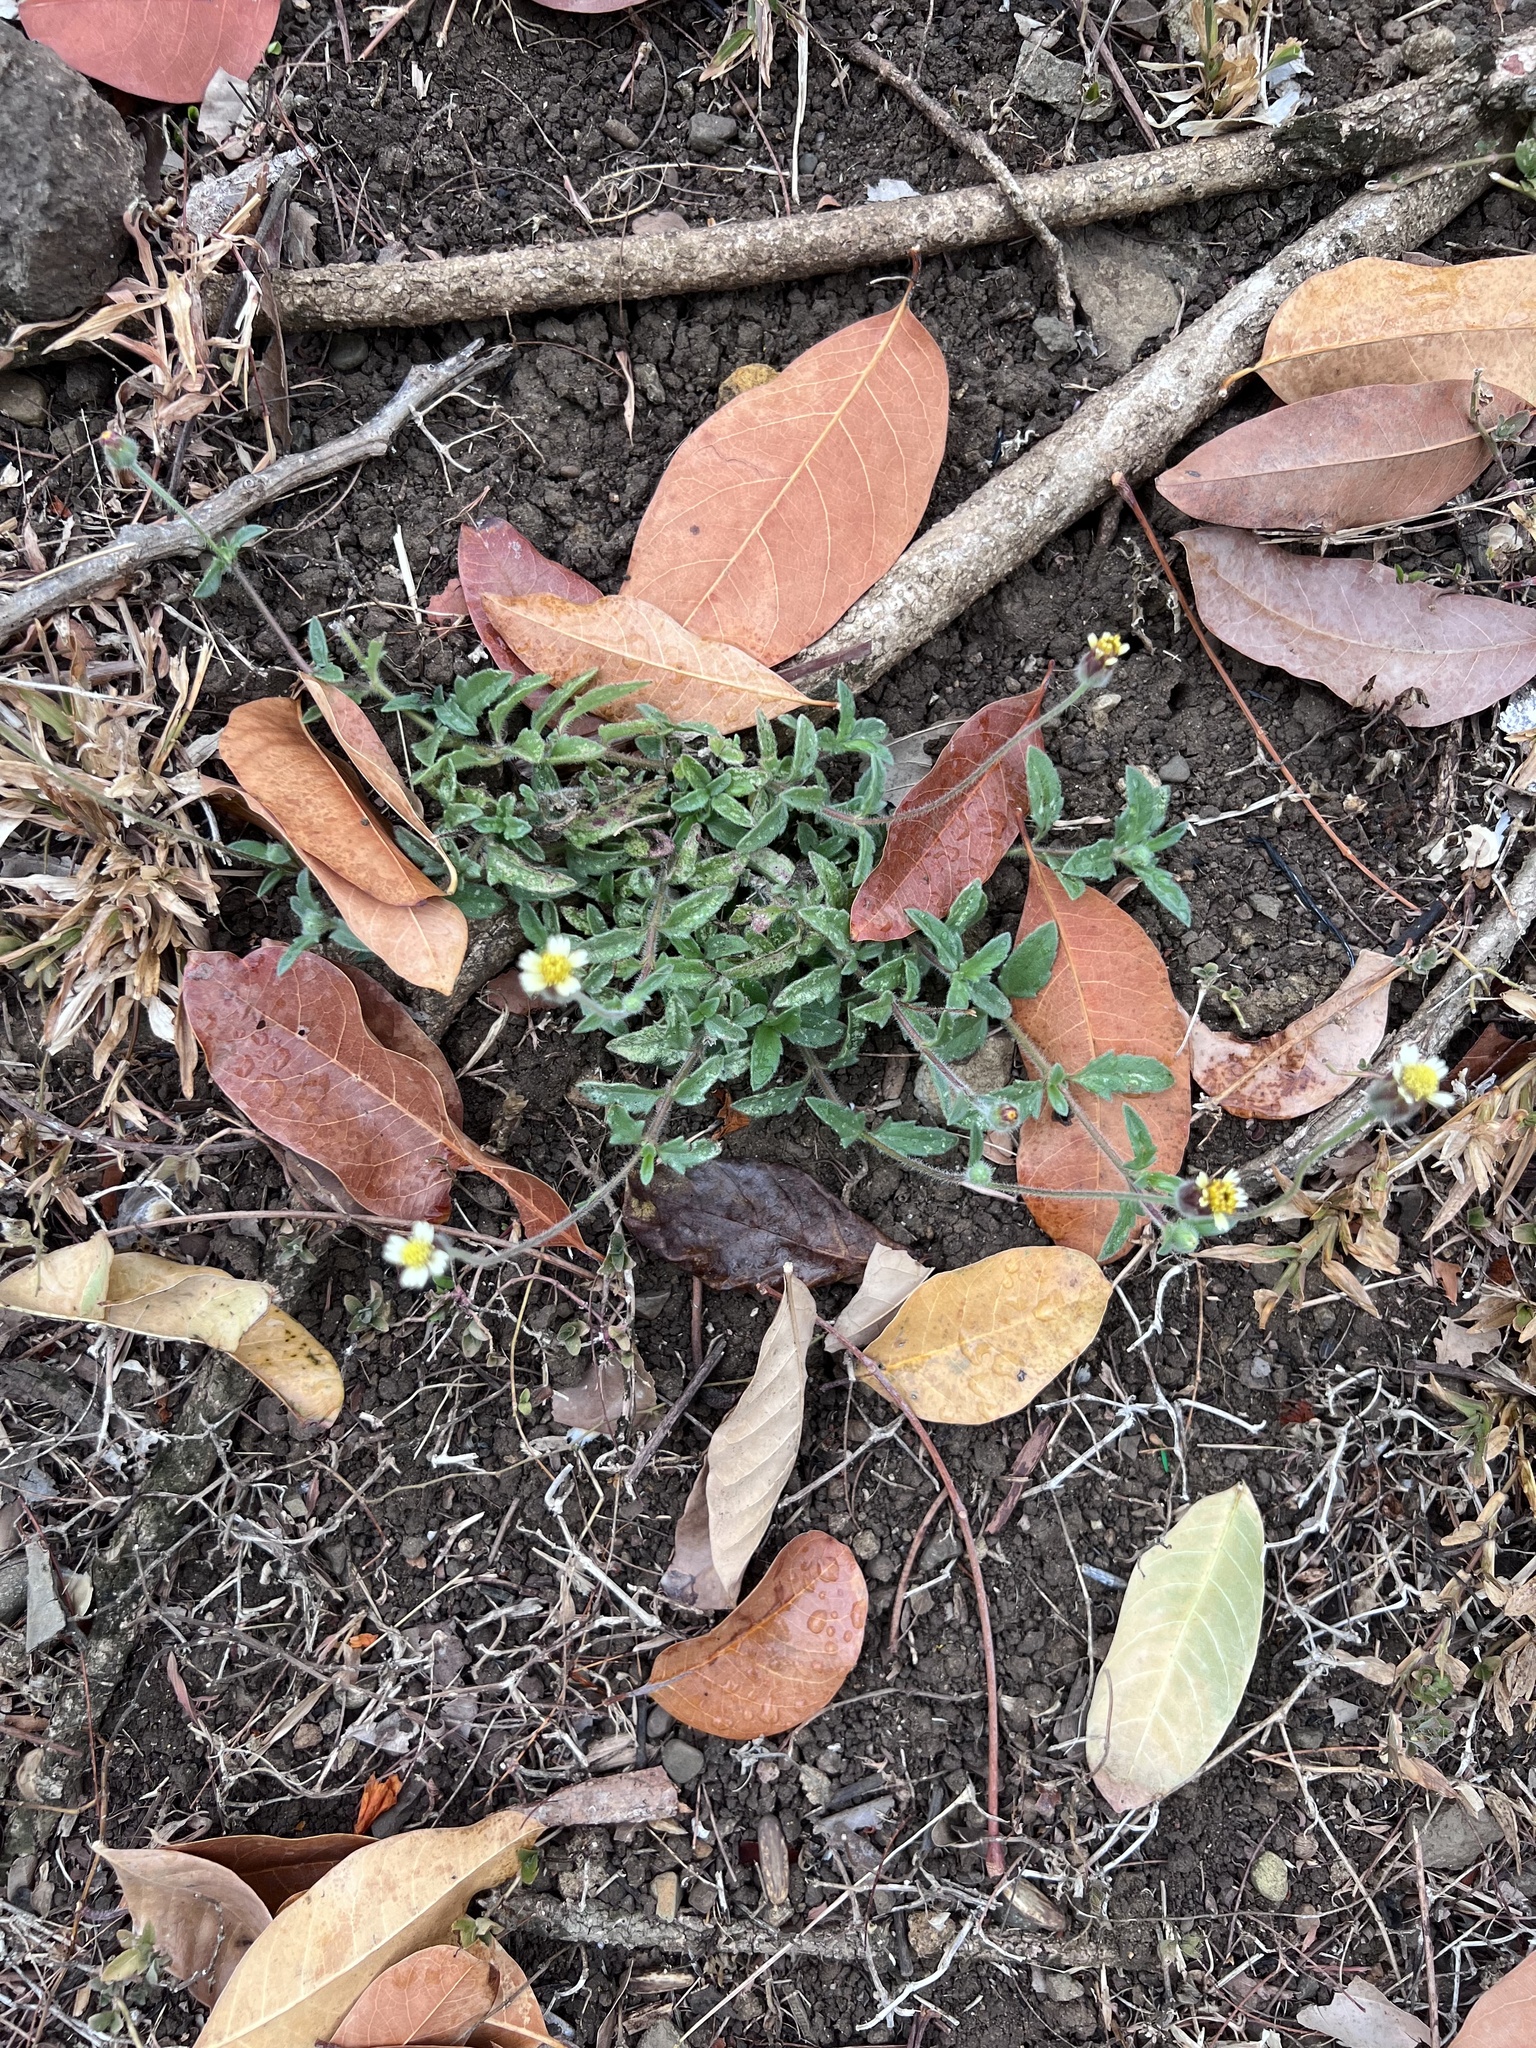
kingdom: Plantae
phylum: Tracheophyta
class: Magnoliopsida
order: Asterales
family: Asteraceae
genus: Tridax
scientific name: Tridax procumbens
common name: Coatbuttons
